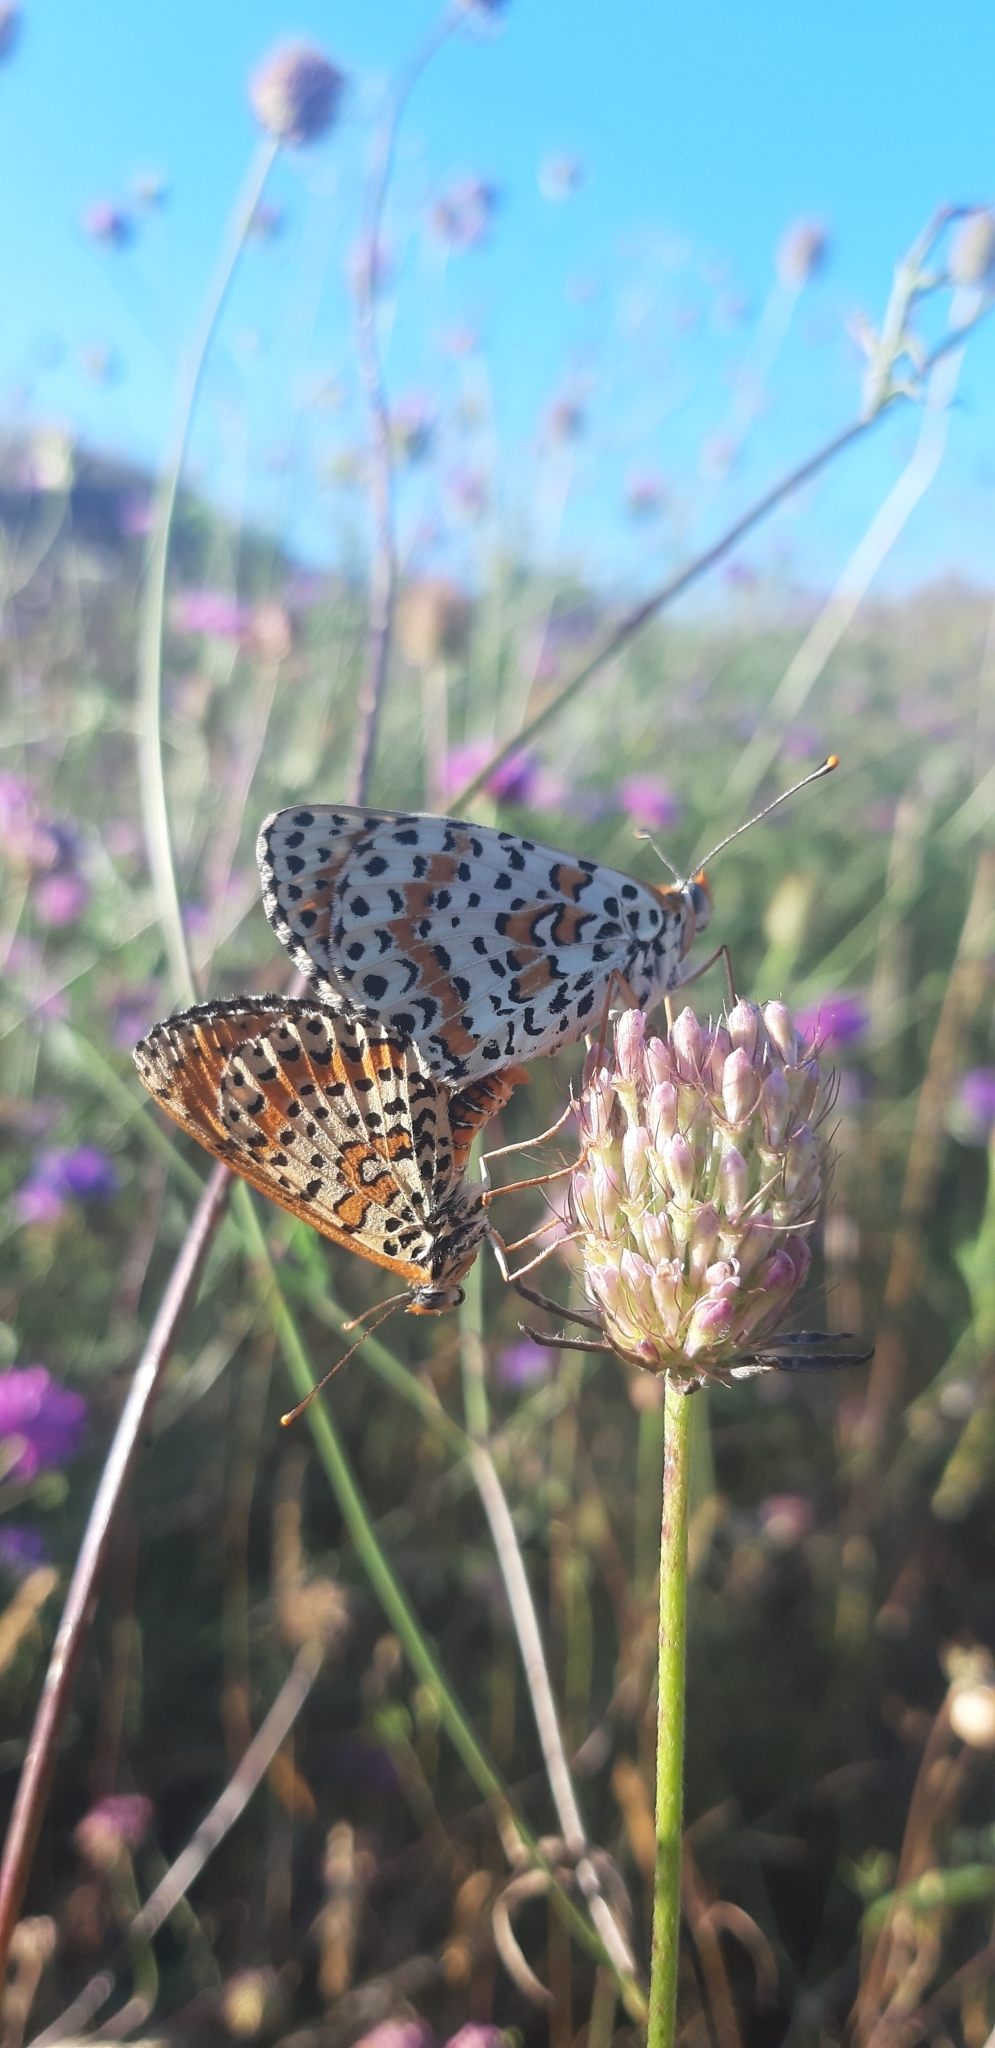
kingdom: Animalia
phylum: Arthropoda
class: Insecta
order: Lepidoptera
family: Nymphalidae
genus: Melitaea
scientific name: Melitaea didyma
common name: Spotted fritillary
